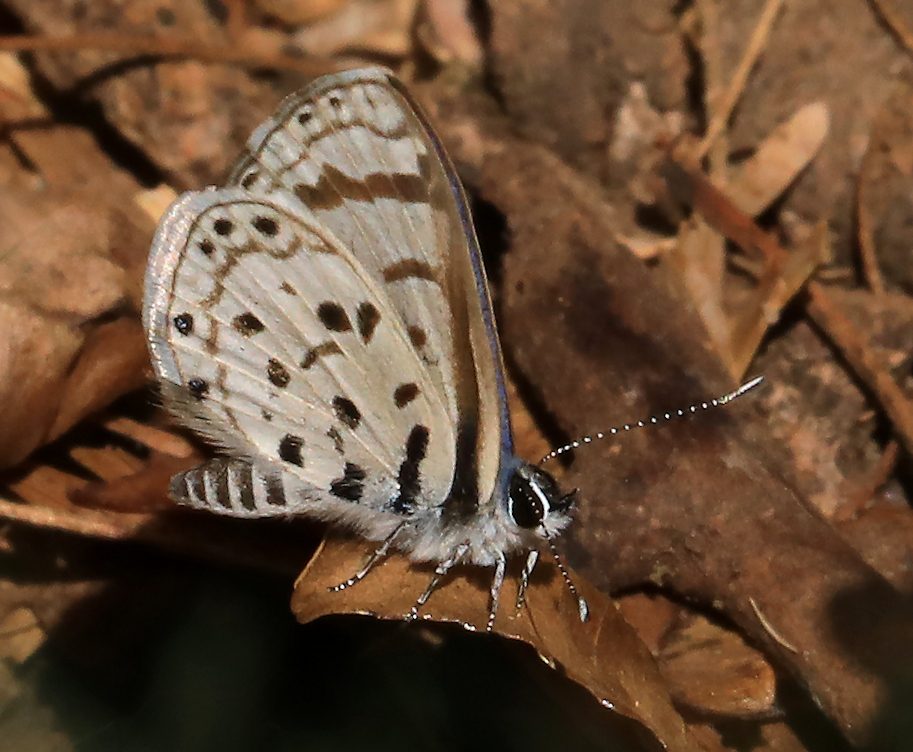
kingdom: Animalia
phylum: Arthropoda
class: Insecta
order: Lepidoptera
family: Lycaenidae
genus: Azanus
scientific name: Azanus natalensis
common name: Natal babul blue
